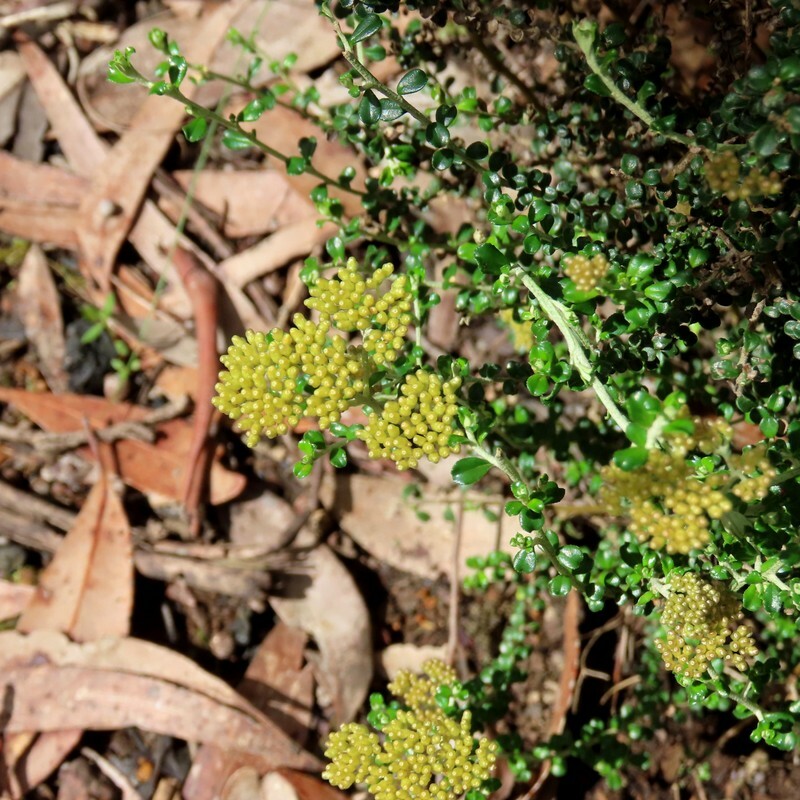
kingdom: Plantae
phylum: Tracheophyta
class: Magnoliopsida
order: Asterales
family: Asteraceae
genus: Ozothamnus
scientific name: Ozothamnus obcordatus
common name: Grey everlasting
